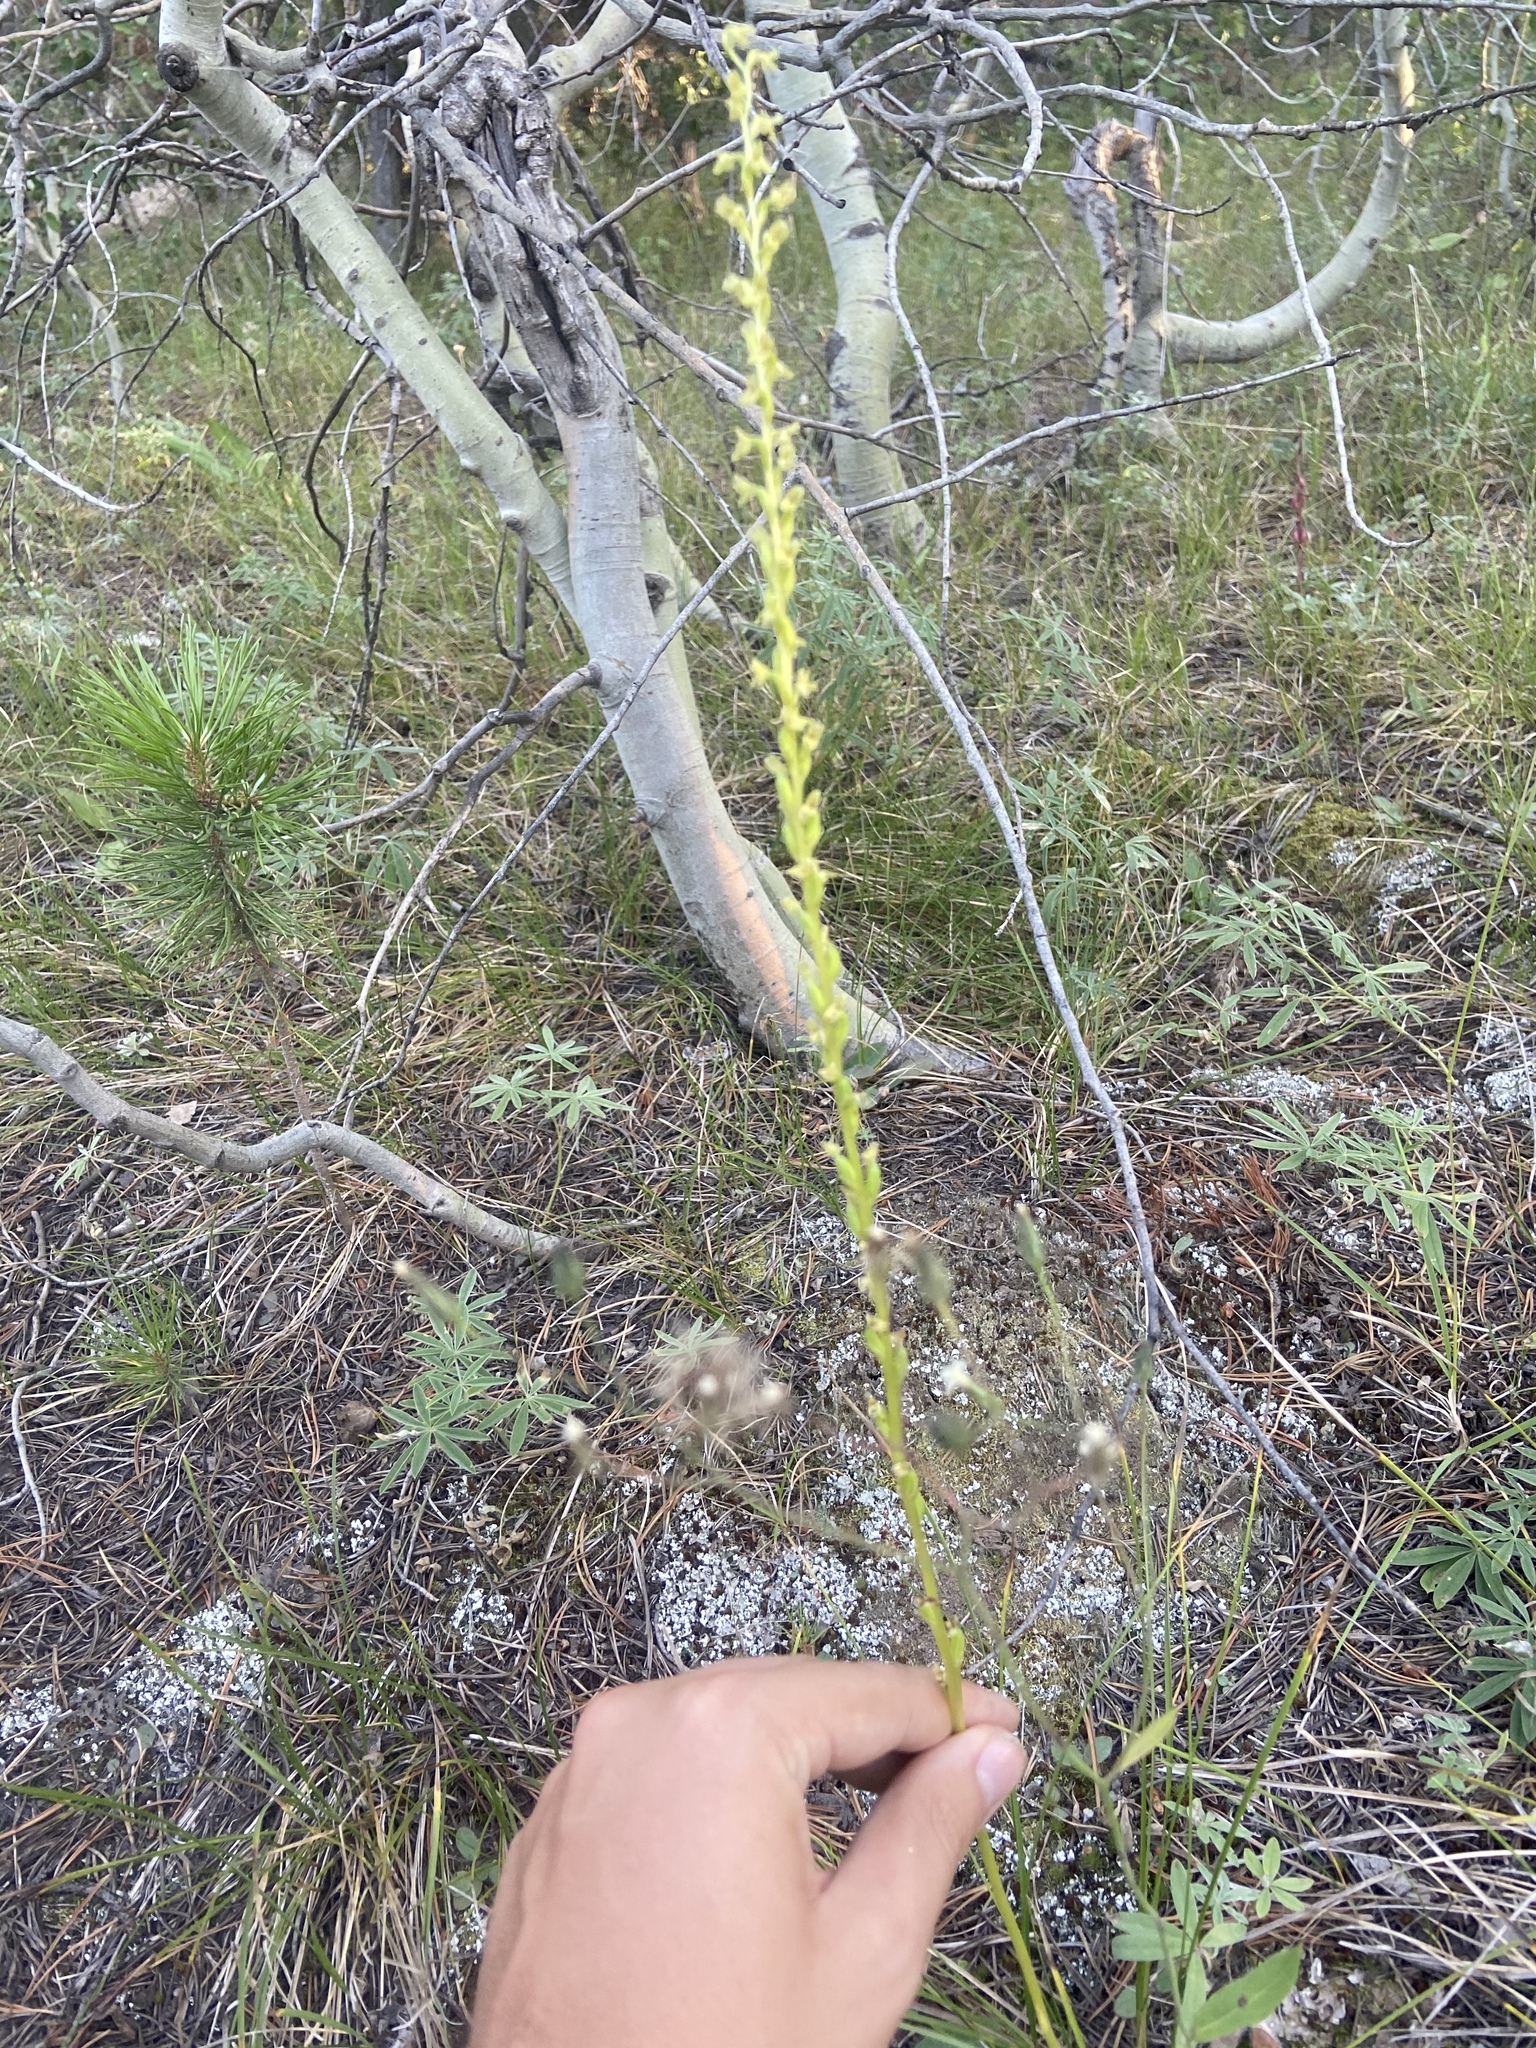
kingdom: Plantae
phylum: Tracheophyta
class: Liliopsida
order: Asparagales
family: Orchidaceae
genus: Platanthera
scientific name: Platanthera unalascensis
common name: Alaska bog orchid
